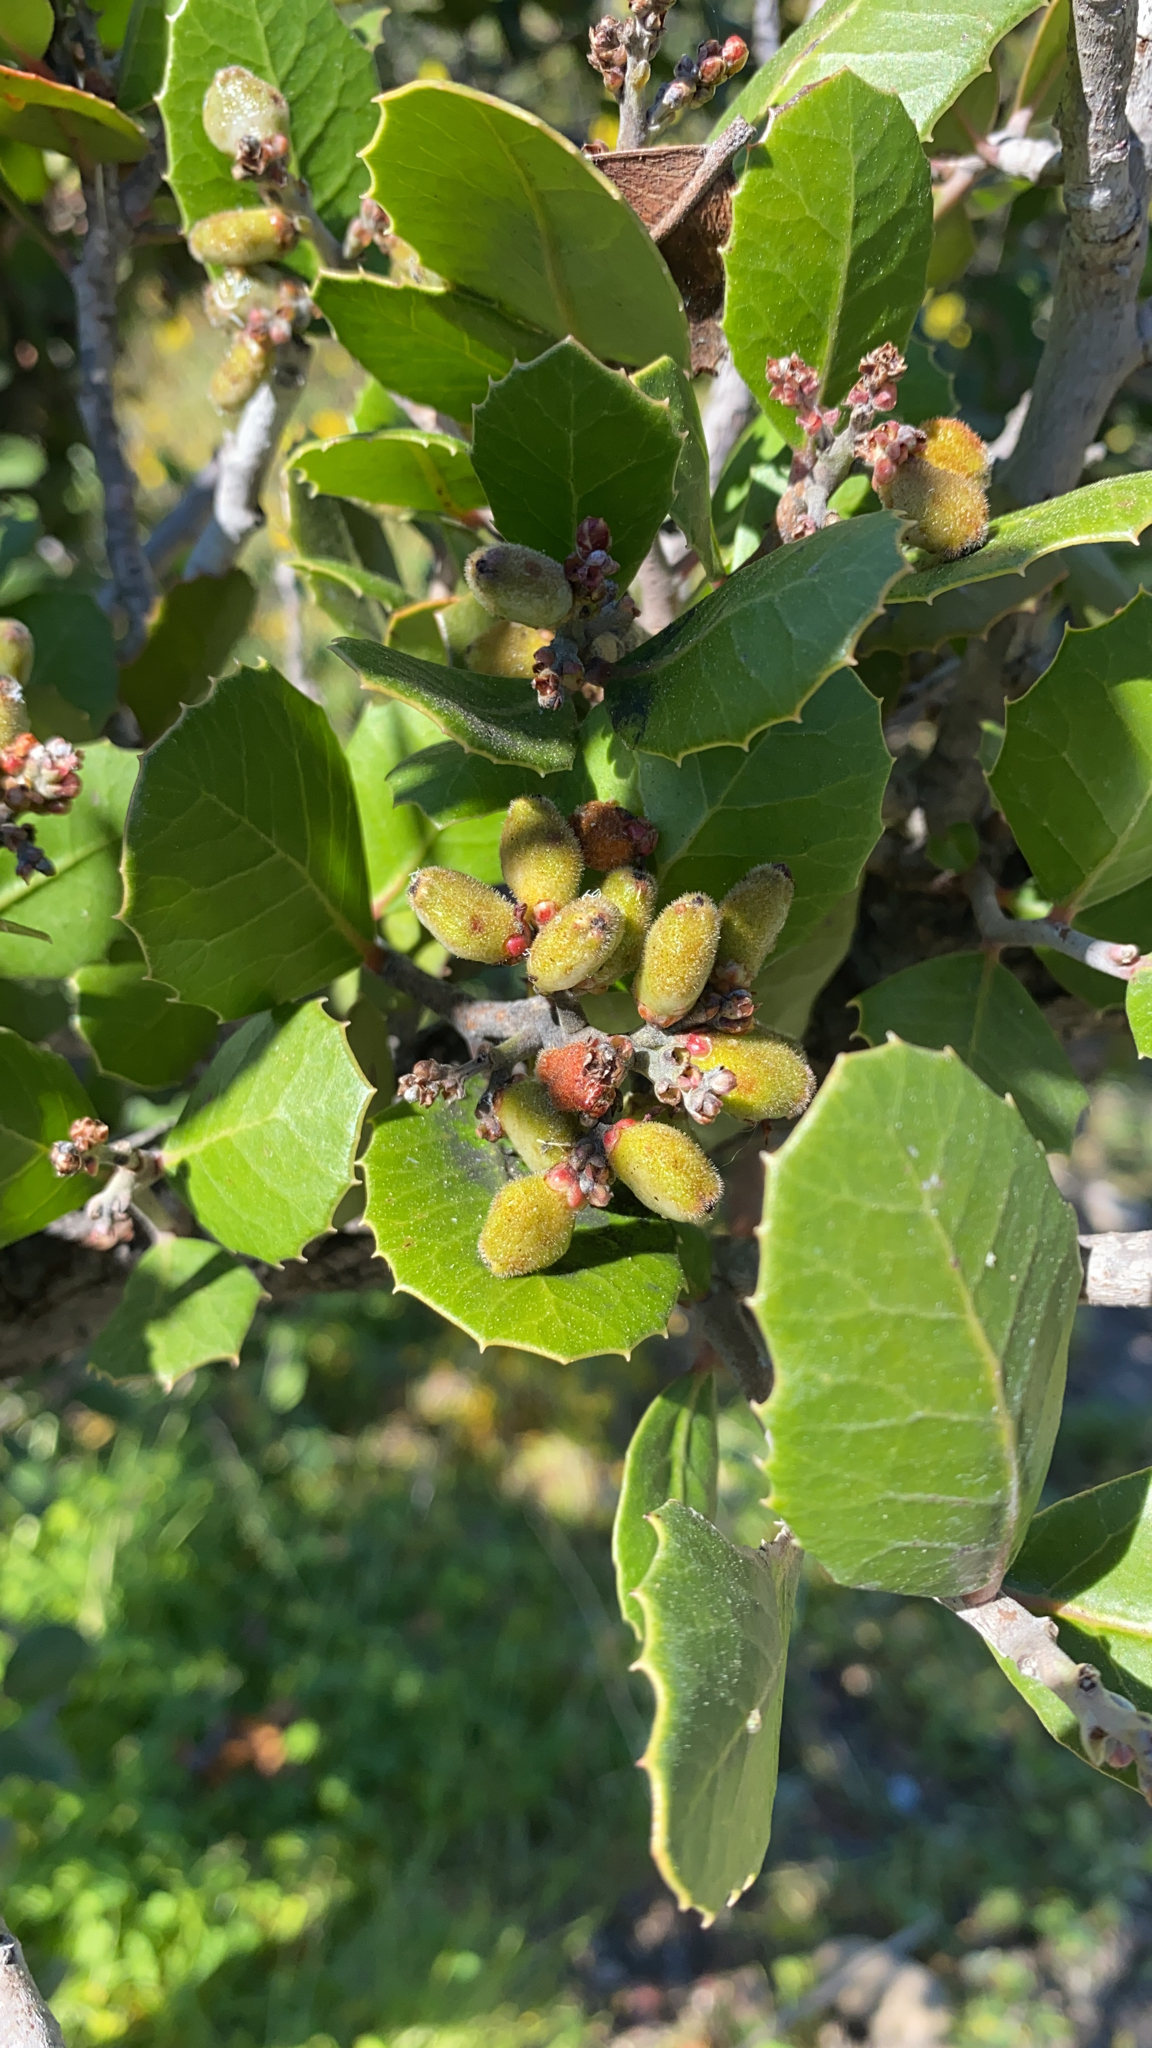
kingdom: Plantae
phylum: Tracheophyta
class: Magnoliopsida
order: Sapindales
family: Anacardiaceae
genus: Rhus
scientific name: Rhus integrifolia
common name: Lemonade sumac
